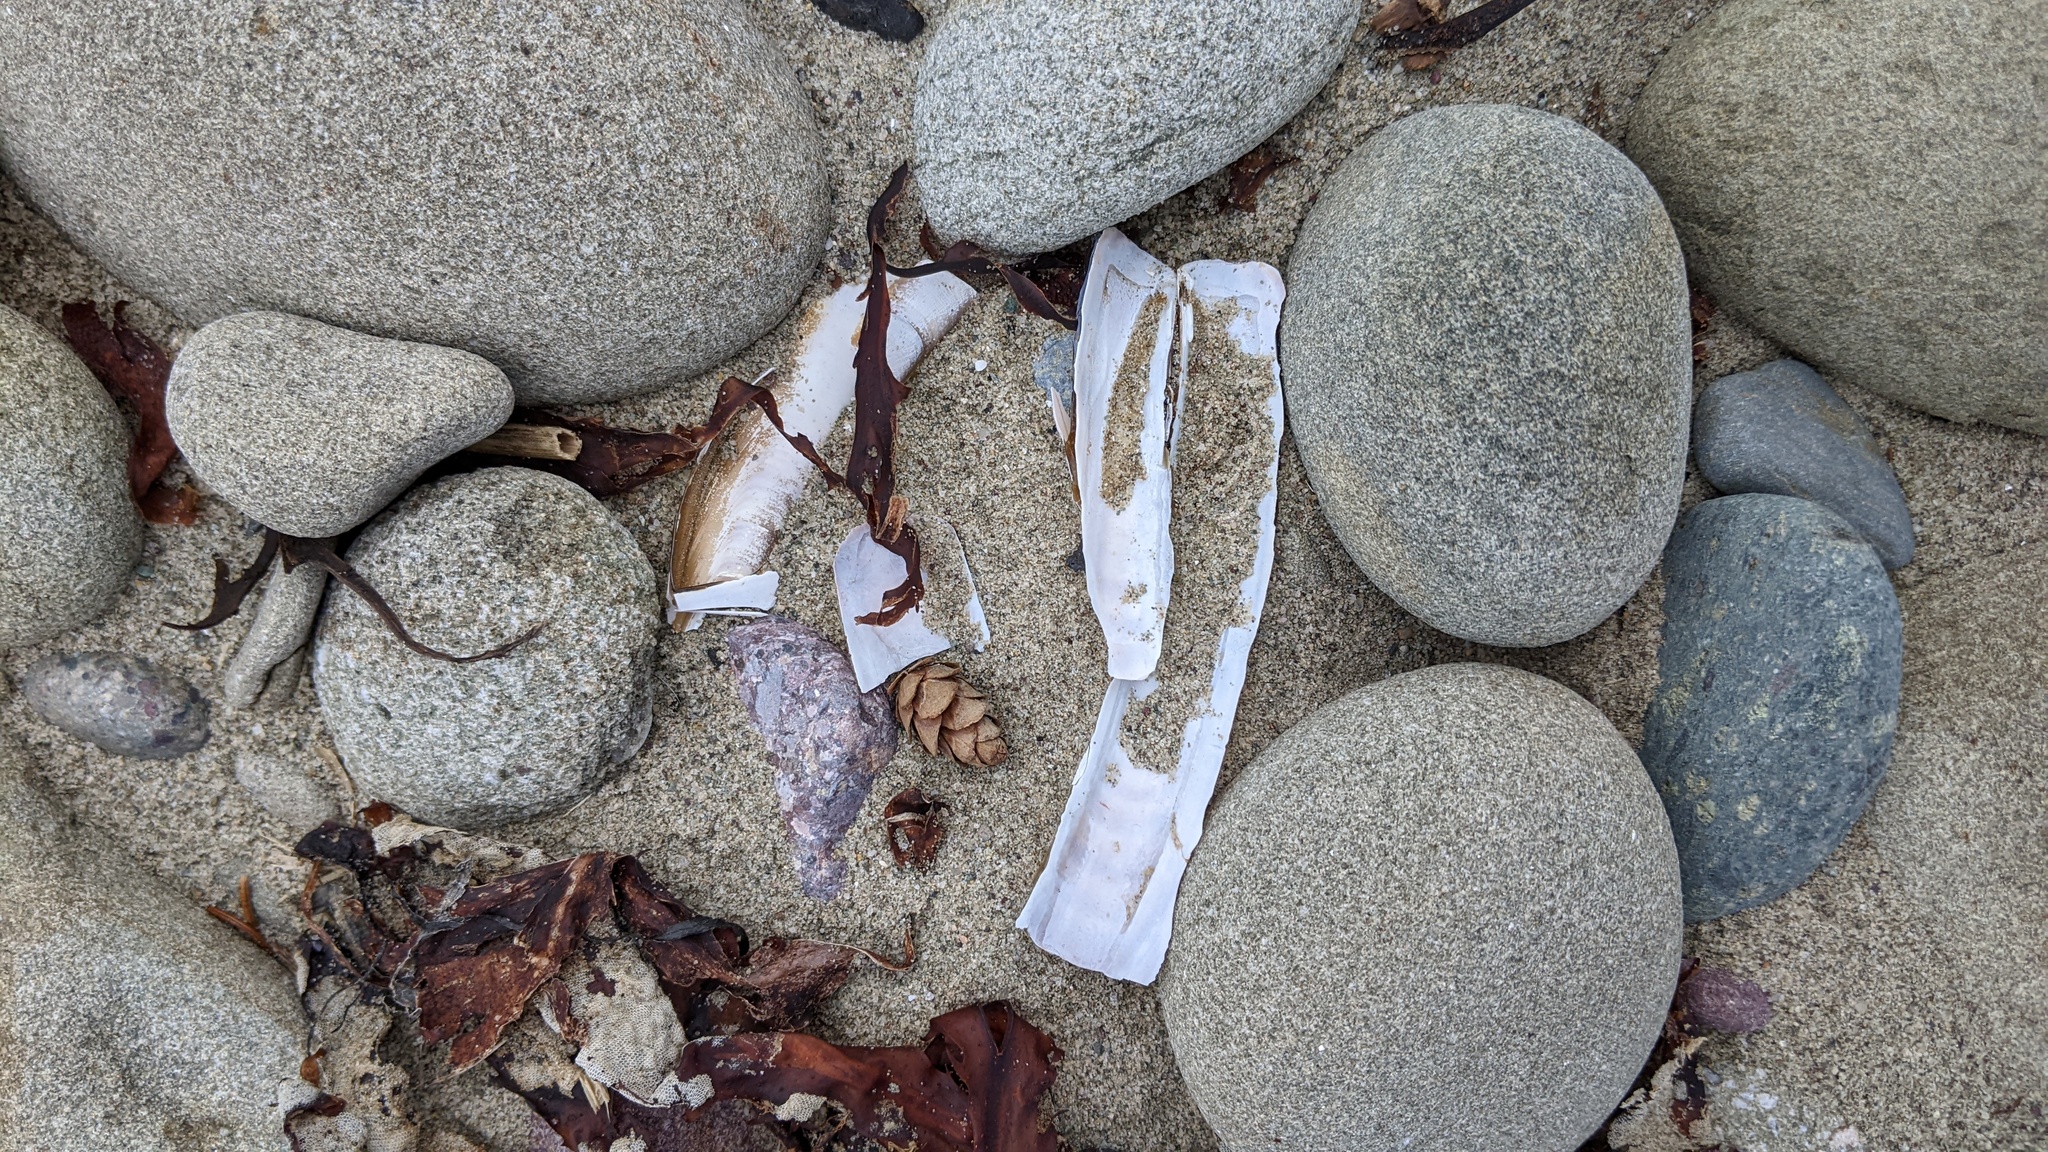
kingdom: Animalia
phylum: Mollusca
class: Bivalvia
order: Adapedonta
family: Pharidae
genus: Ensis
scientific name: Ensis leei
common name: American jack knife clam
